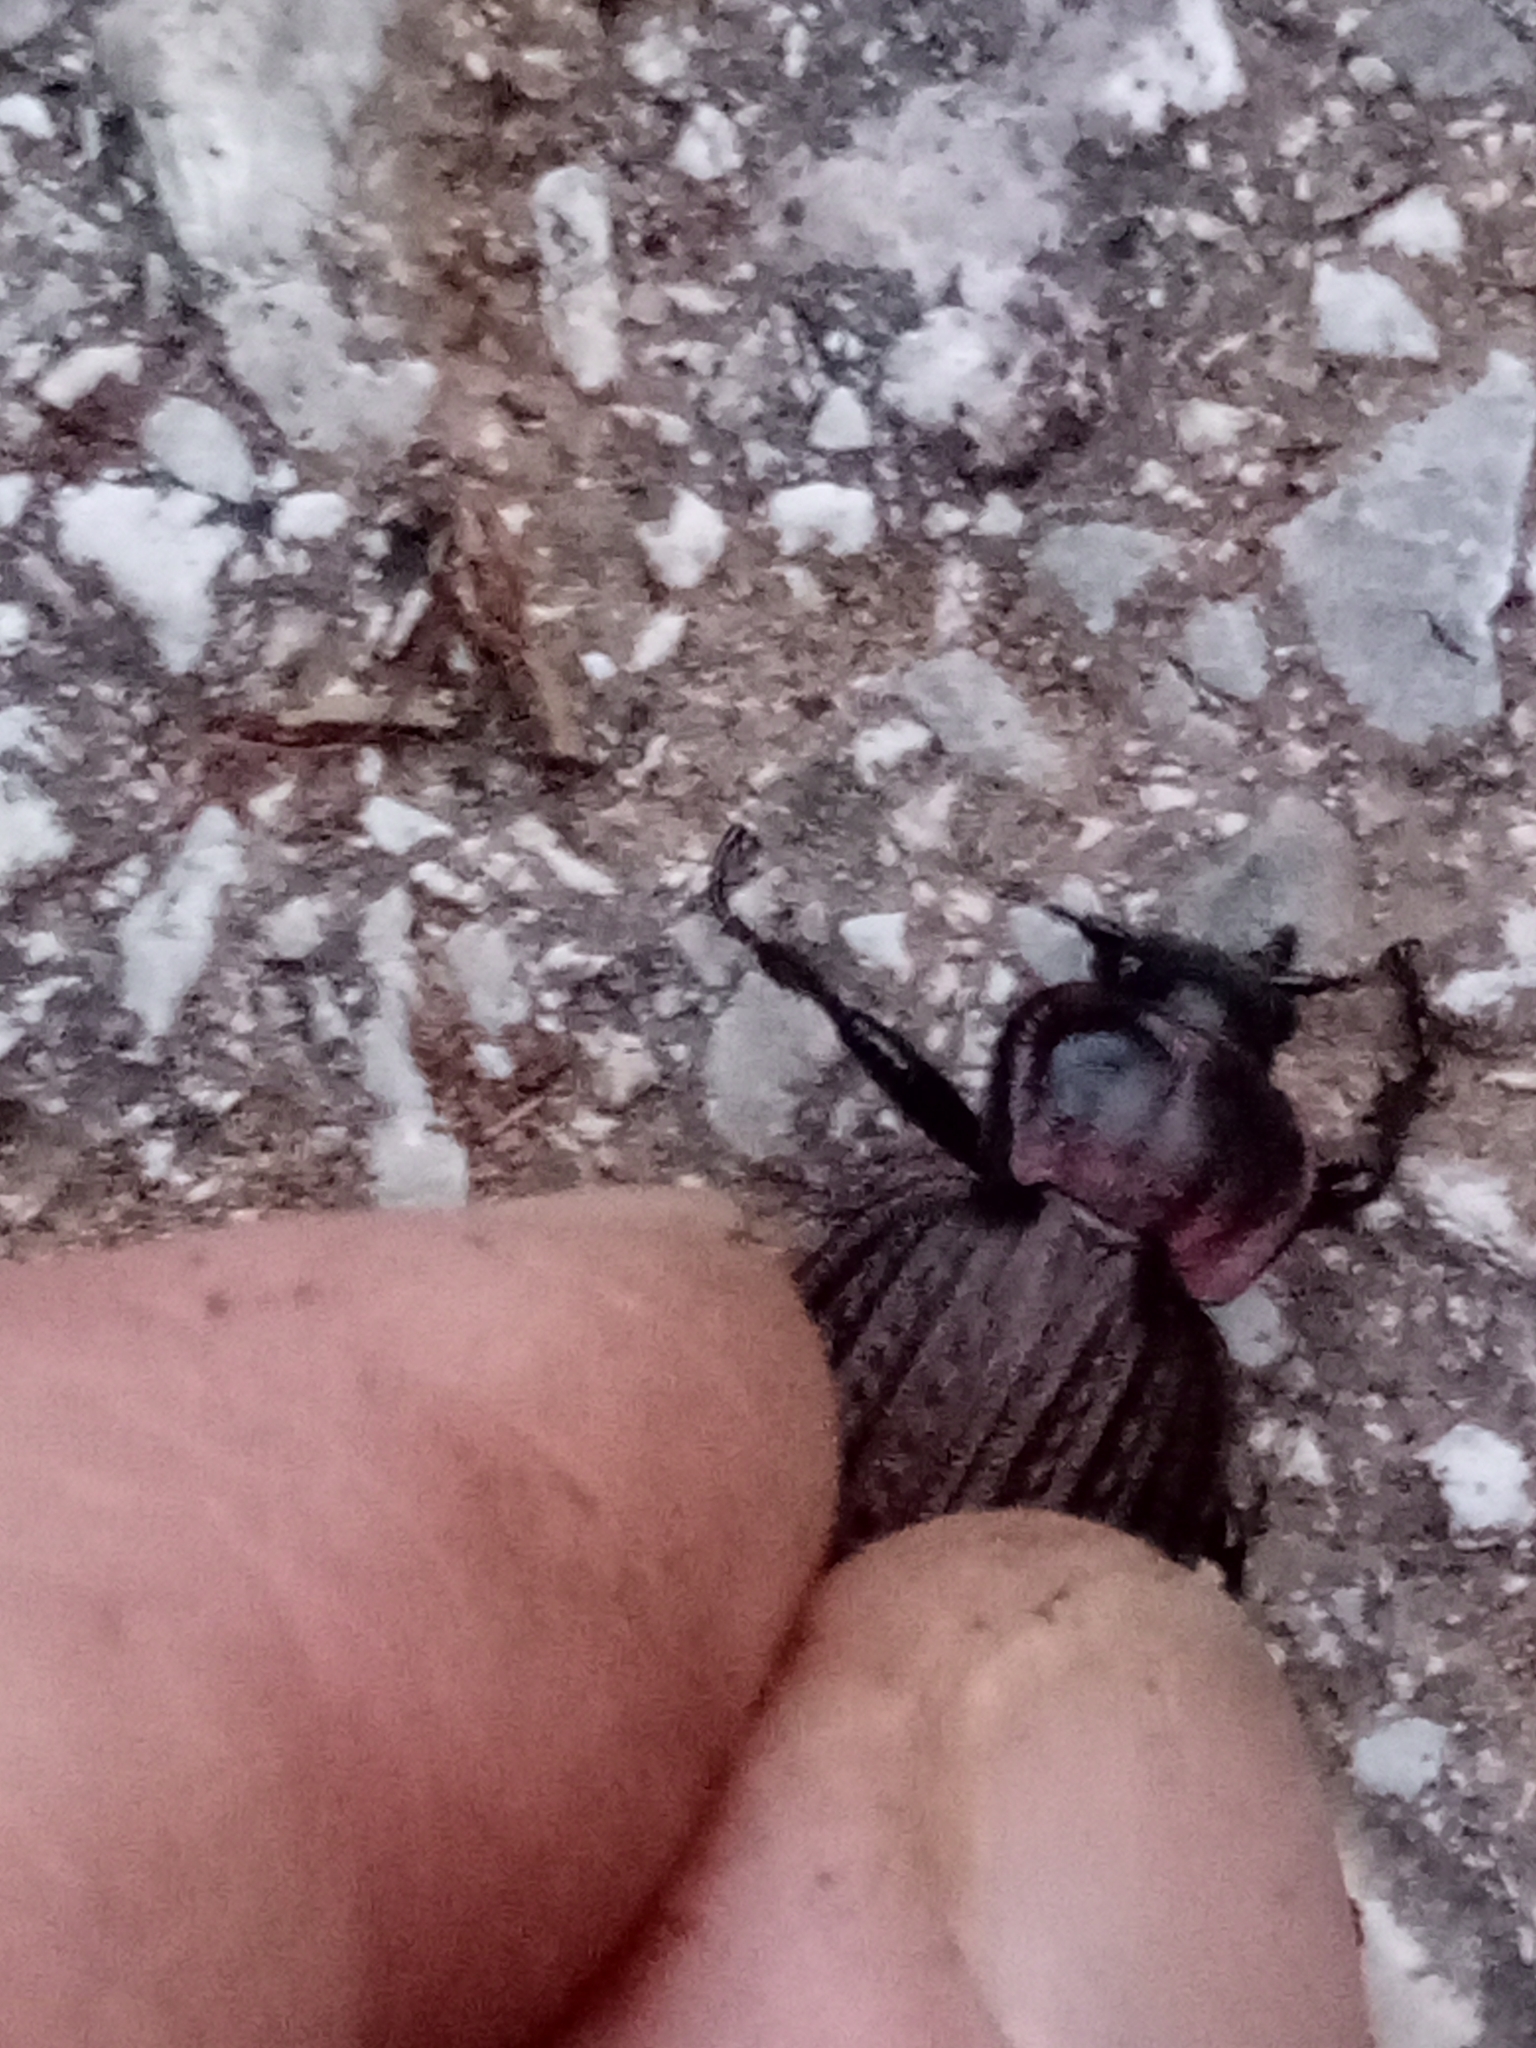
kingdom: Animalia
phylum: Arthropoda
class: Insecta
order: Coleoptera
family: Carabidae
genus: Carabus
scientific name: Carabus faminii
